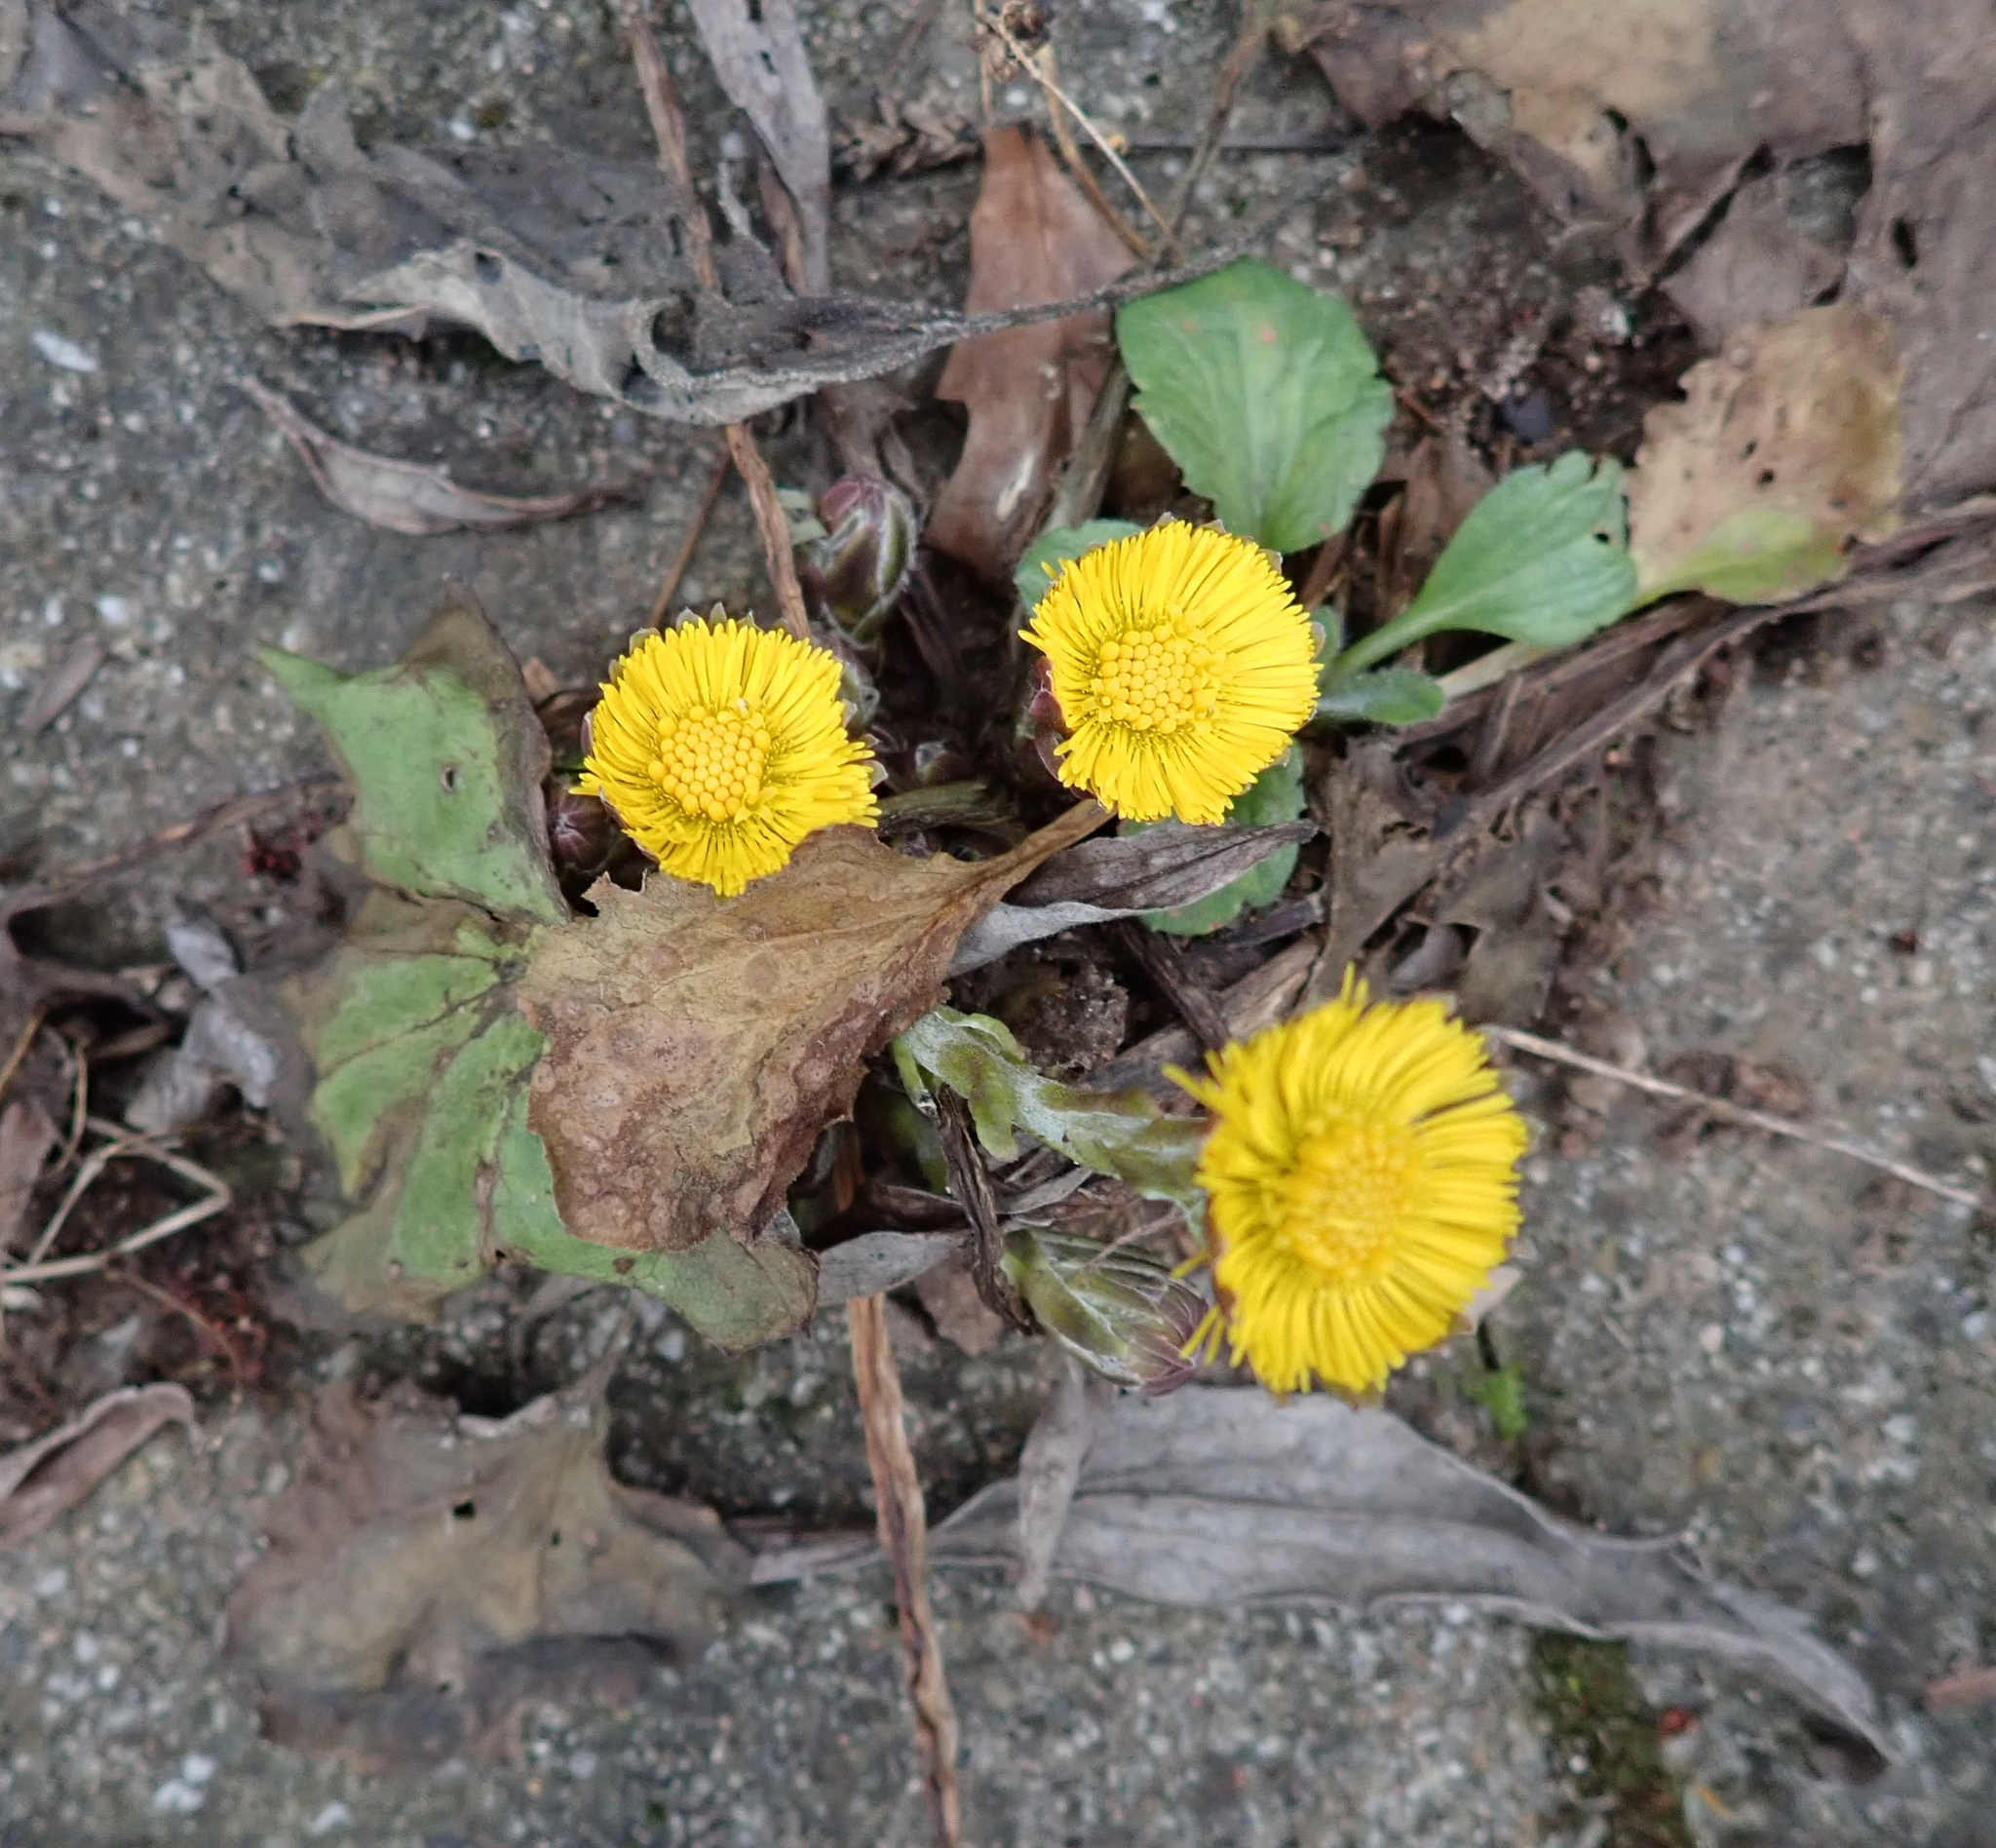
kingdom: Plantae
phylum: Tracheophyta
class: Magnoliopsida
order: Asterales
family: Asteraceae
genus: Tussilago
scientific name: Tussilago farfara
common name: Coltsfoot
